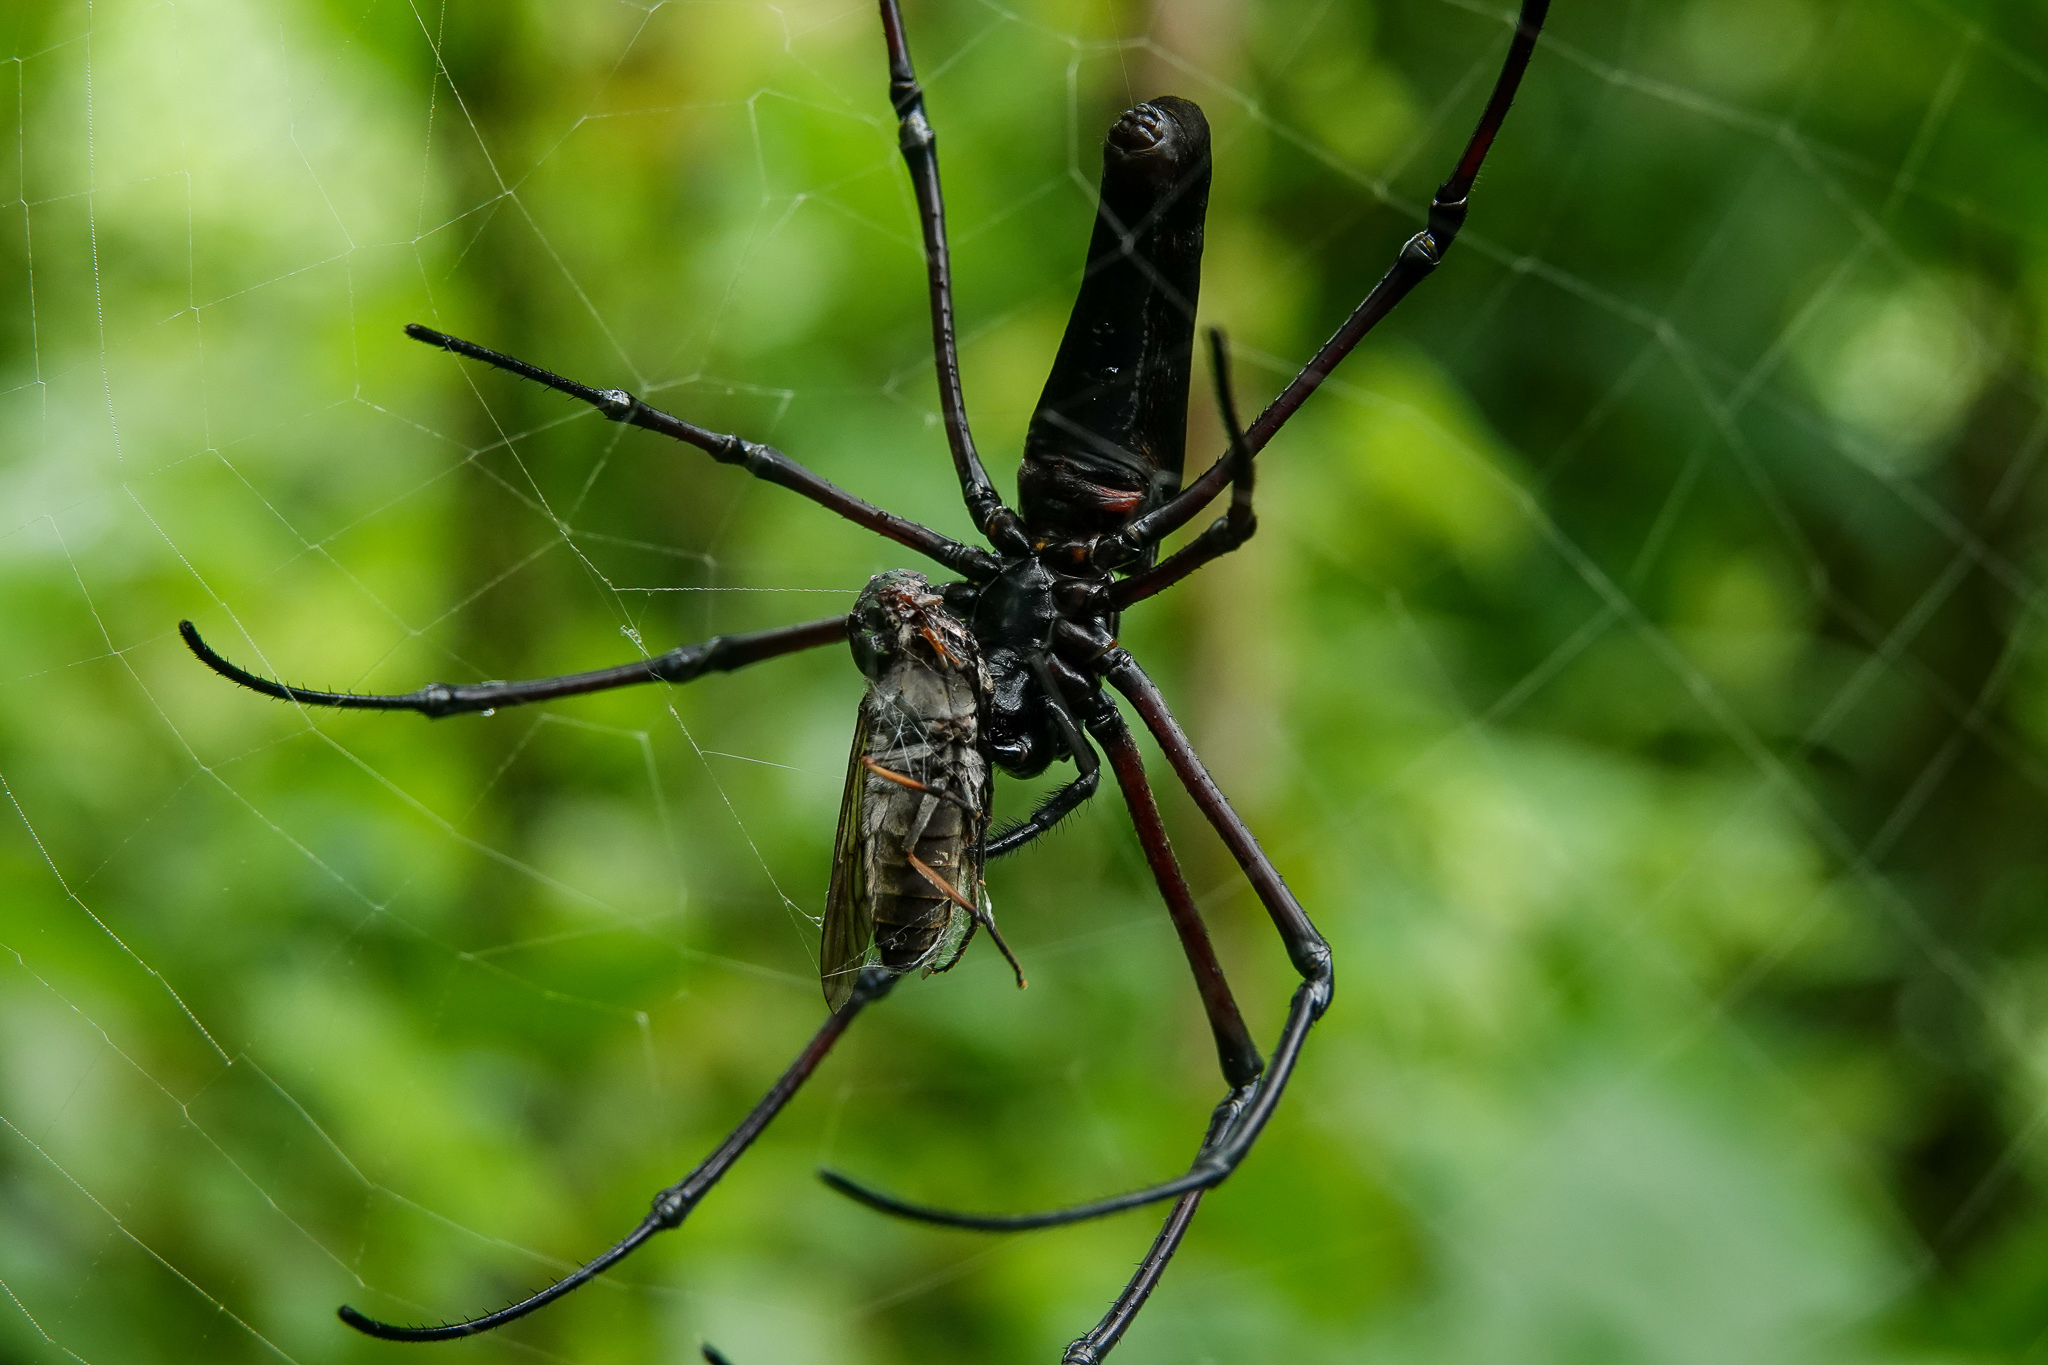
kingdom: Animalia
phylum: Arthropoda
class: Arachnida
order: Araneae
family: Araneidae
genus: Nephila
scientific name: Nephila kuhli
